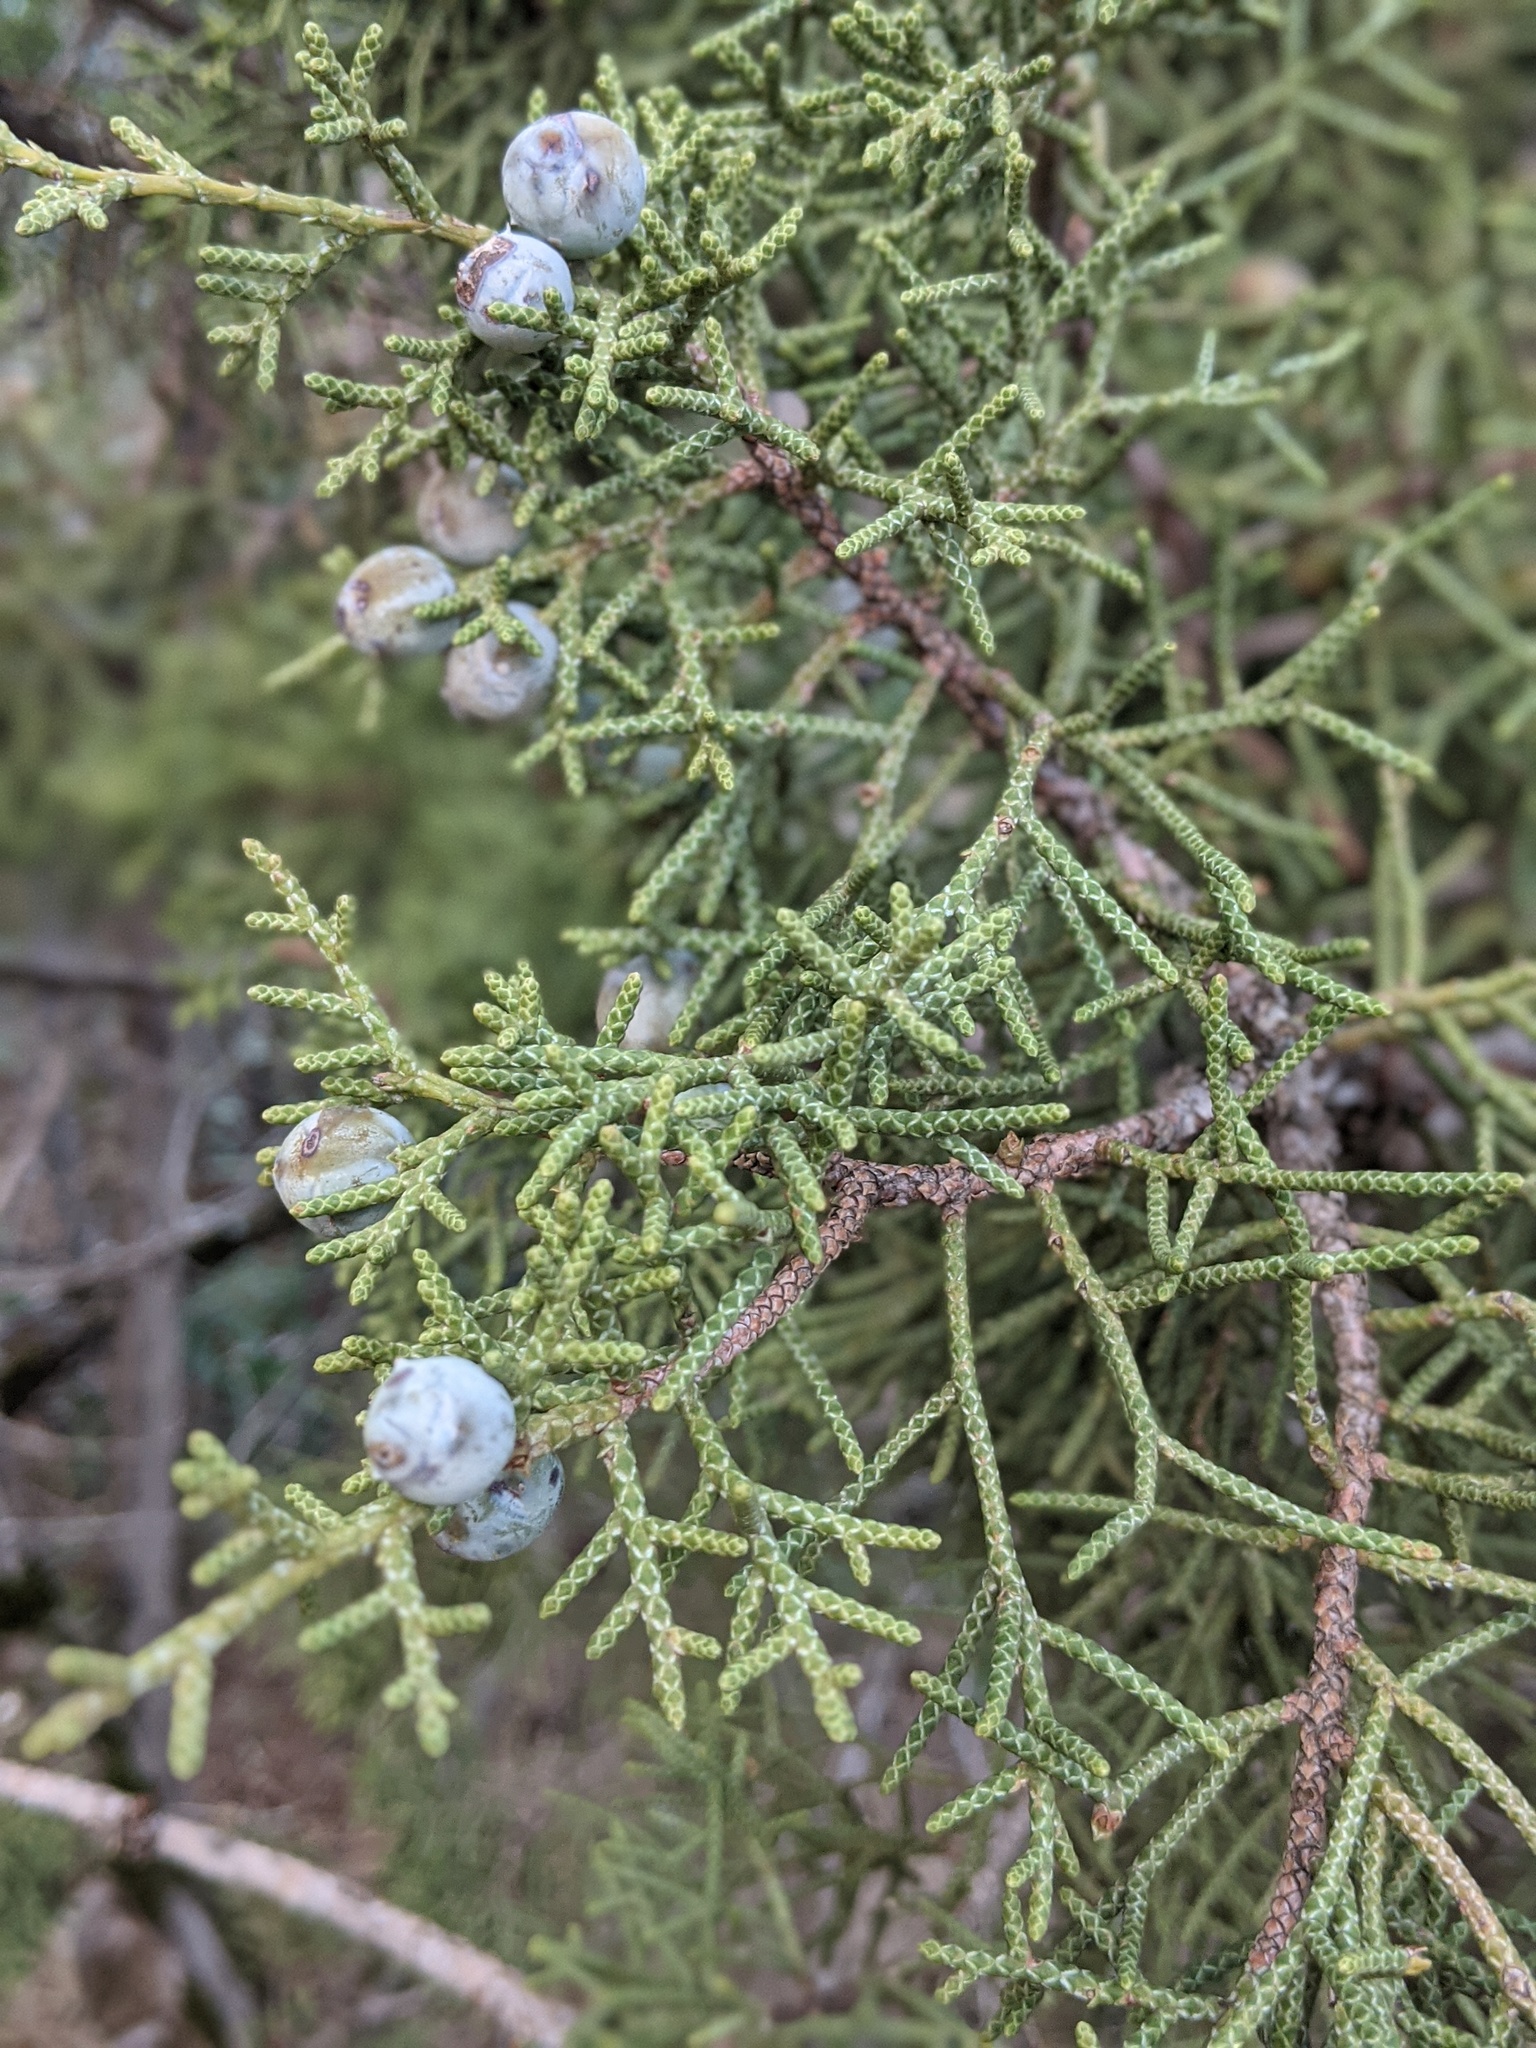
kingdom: Plantae
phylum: Tracheophyta
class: Pinopsida
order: Pinales
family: Cupressaceae
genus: Juniperus
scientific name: Juniperus californica
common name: California juniper
